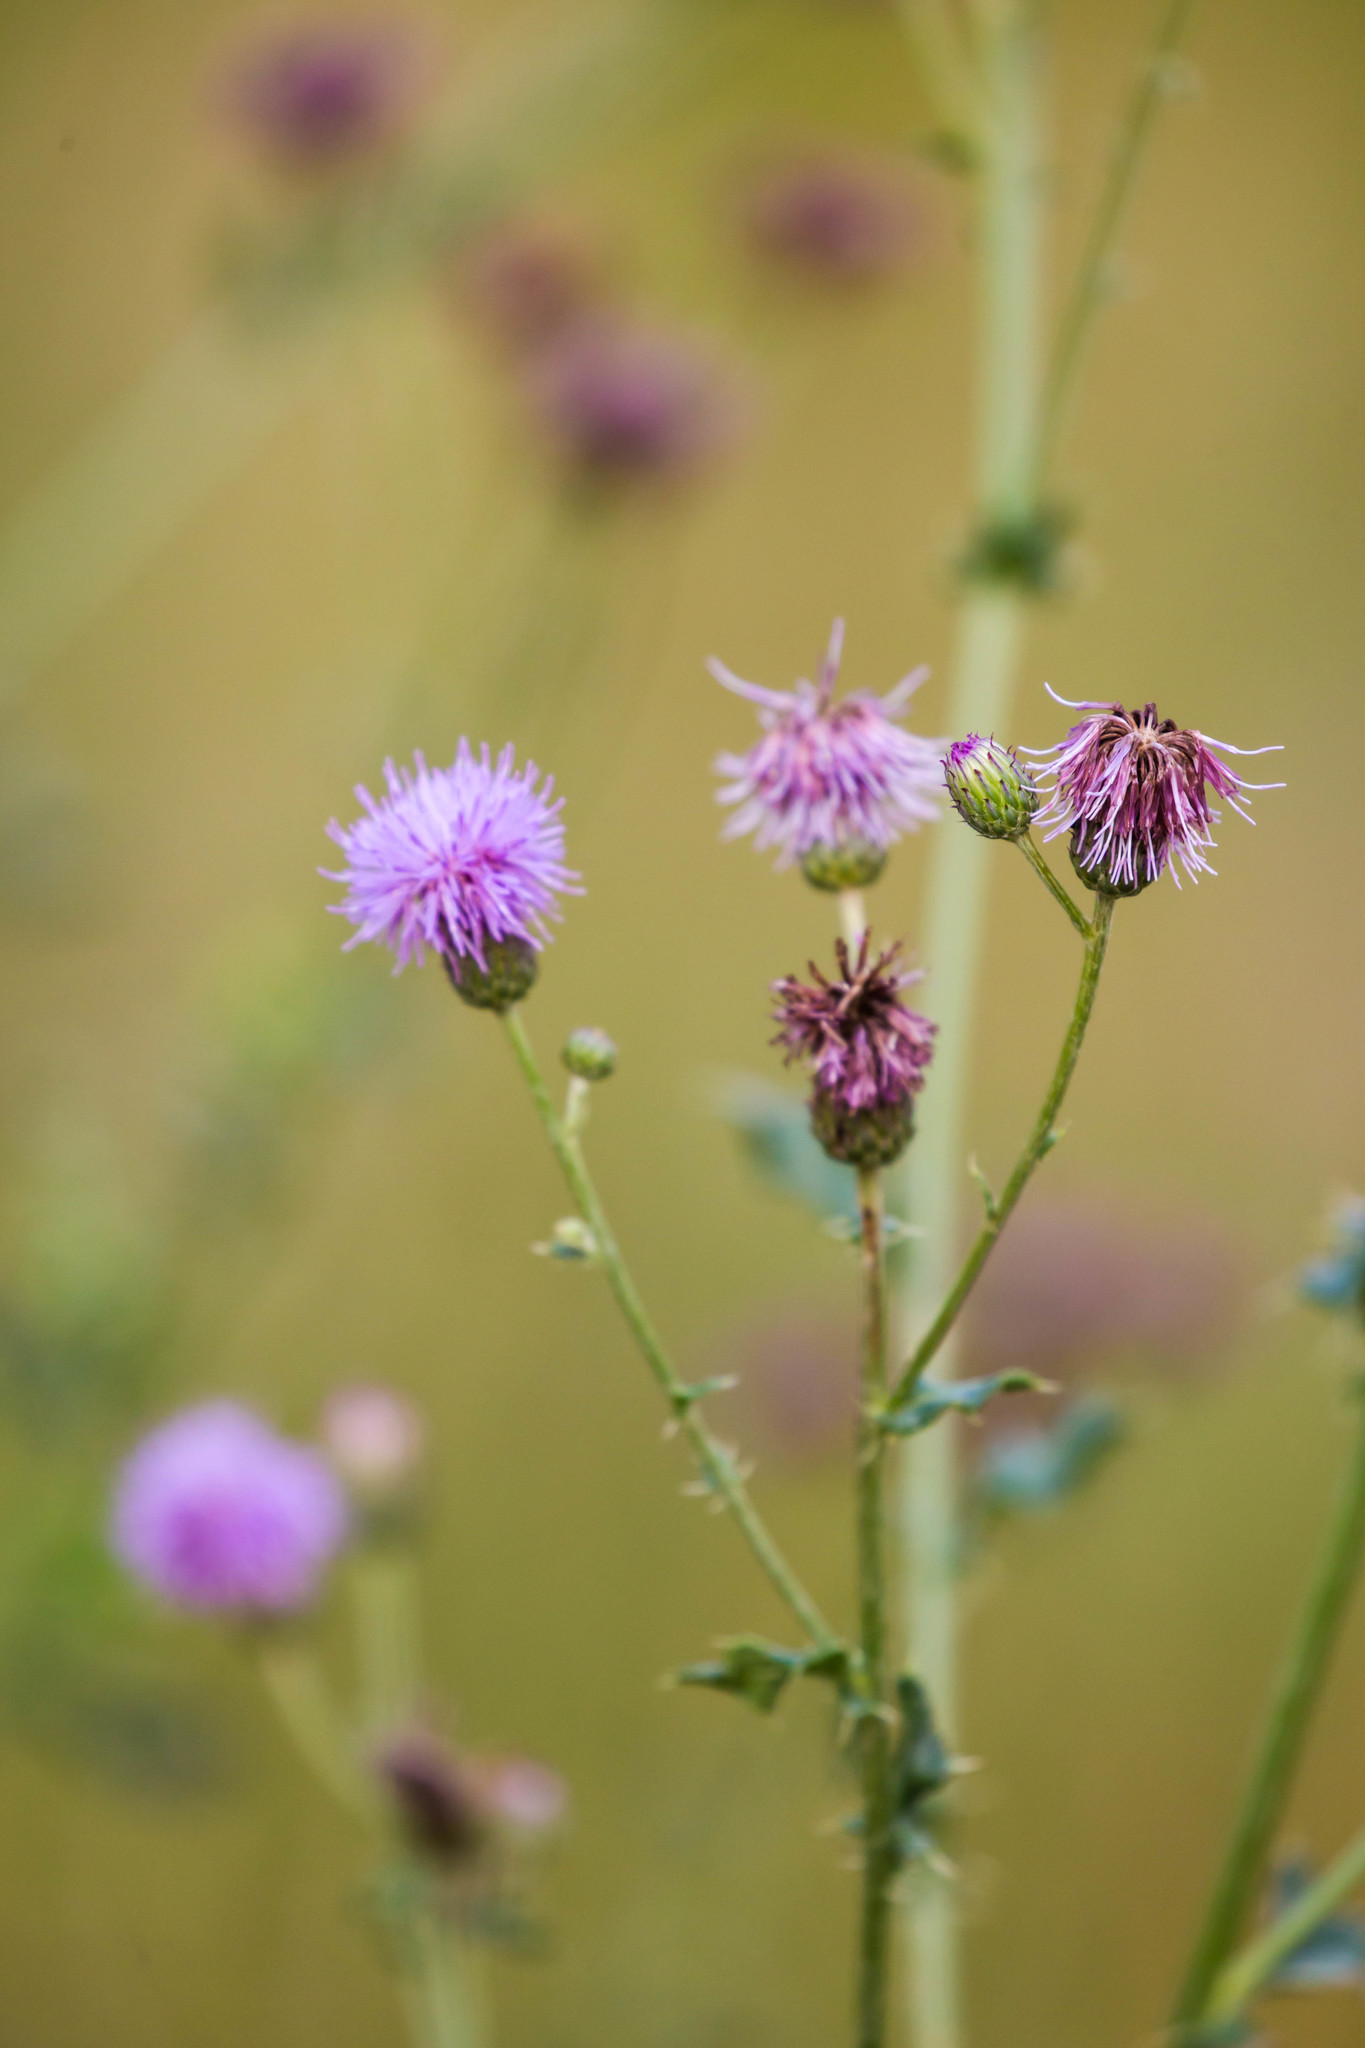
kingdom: Plantae
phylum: Tracheophyta
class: Magnoliopsida
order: Asterales
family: Asteraceae
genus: Cirsium
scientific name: Cirsium arvense
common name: Creeping thistle
